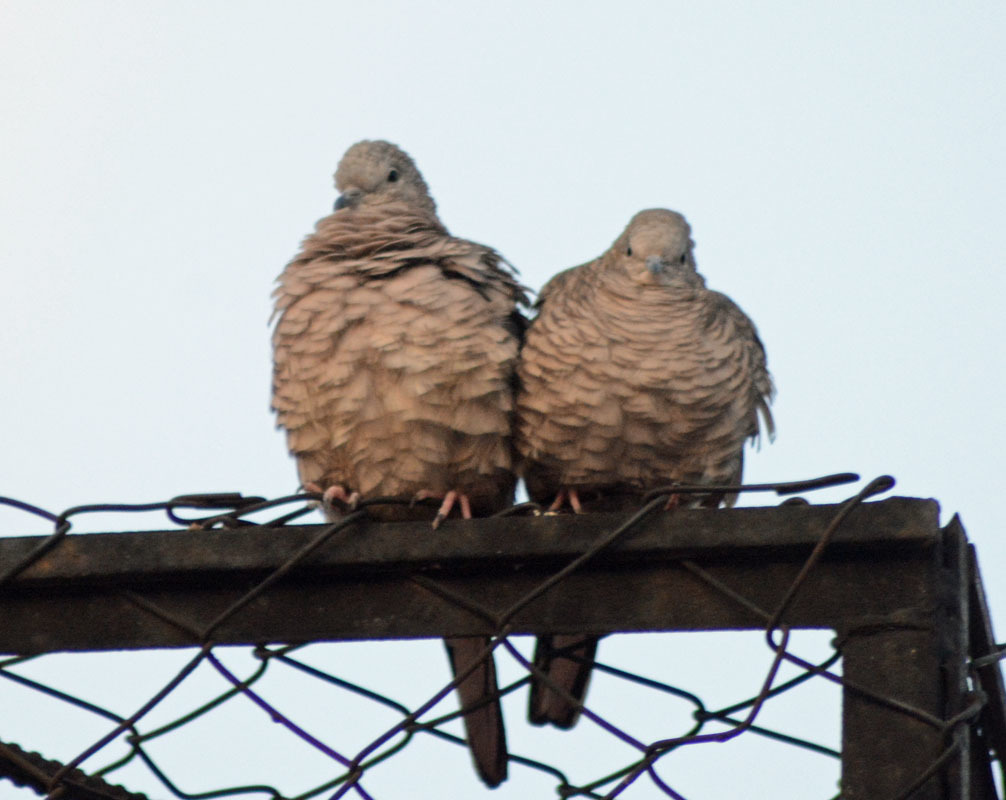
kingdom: Animalia
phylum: Chordata
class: Aves
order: Columbiformes
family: Columbidae
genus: Columbina
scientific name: Columbina inca
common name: Inca dove
